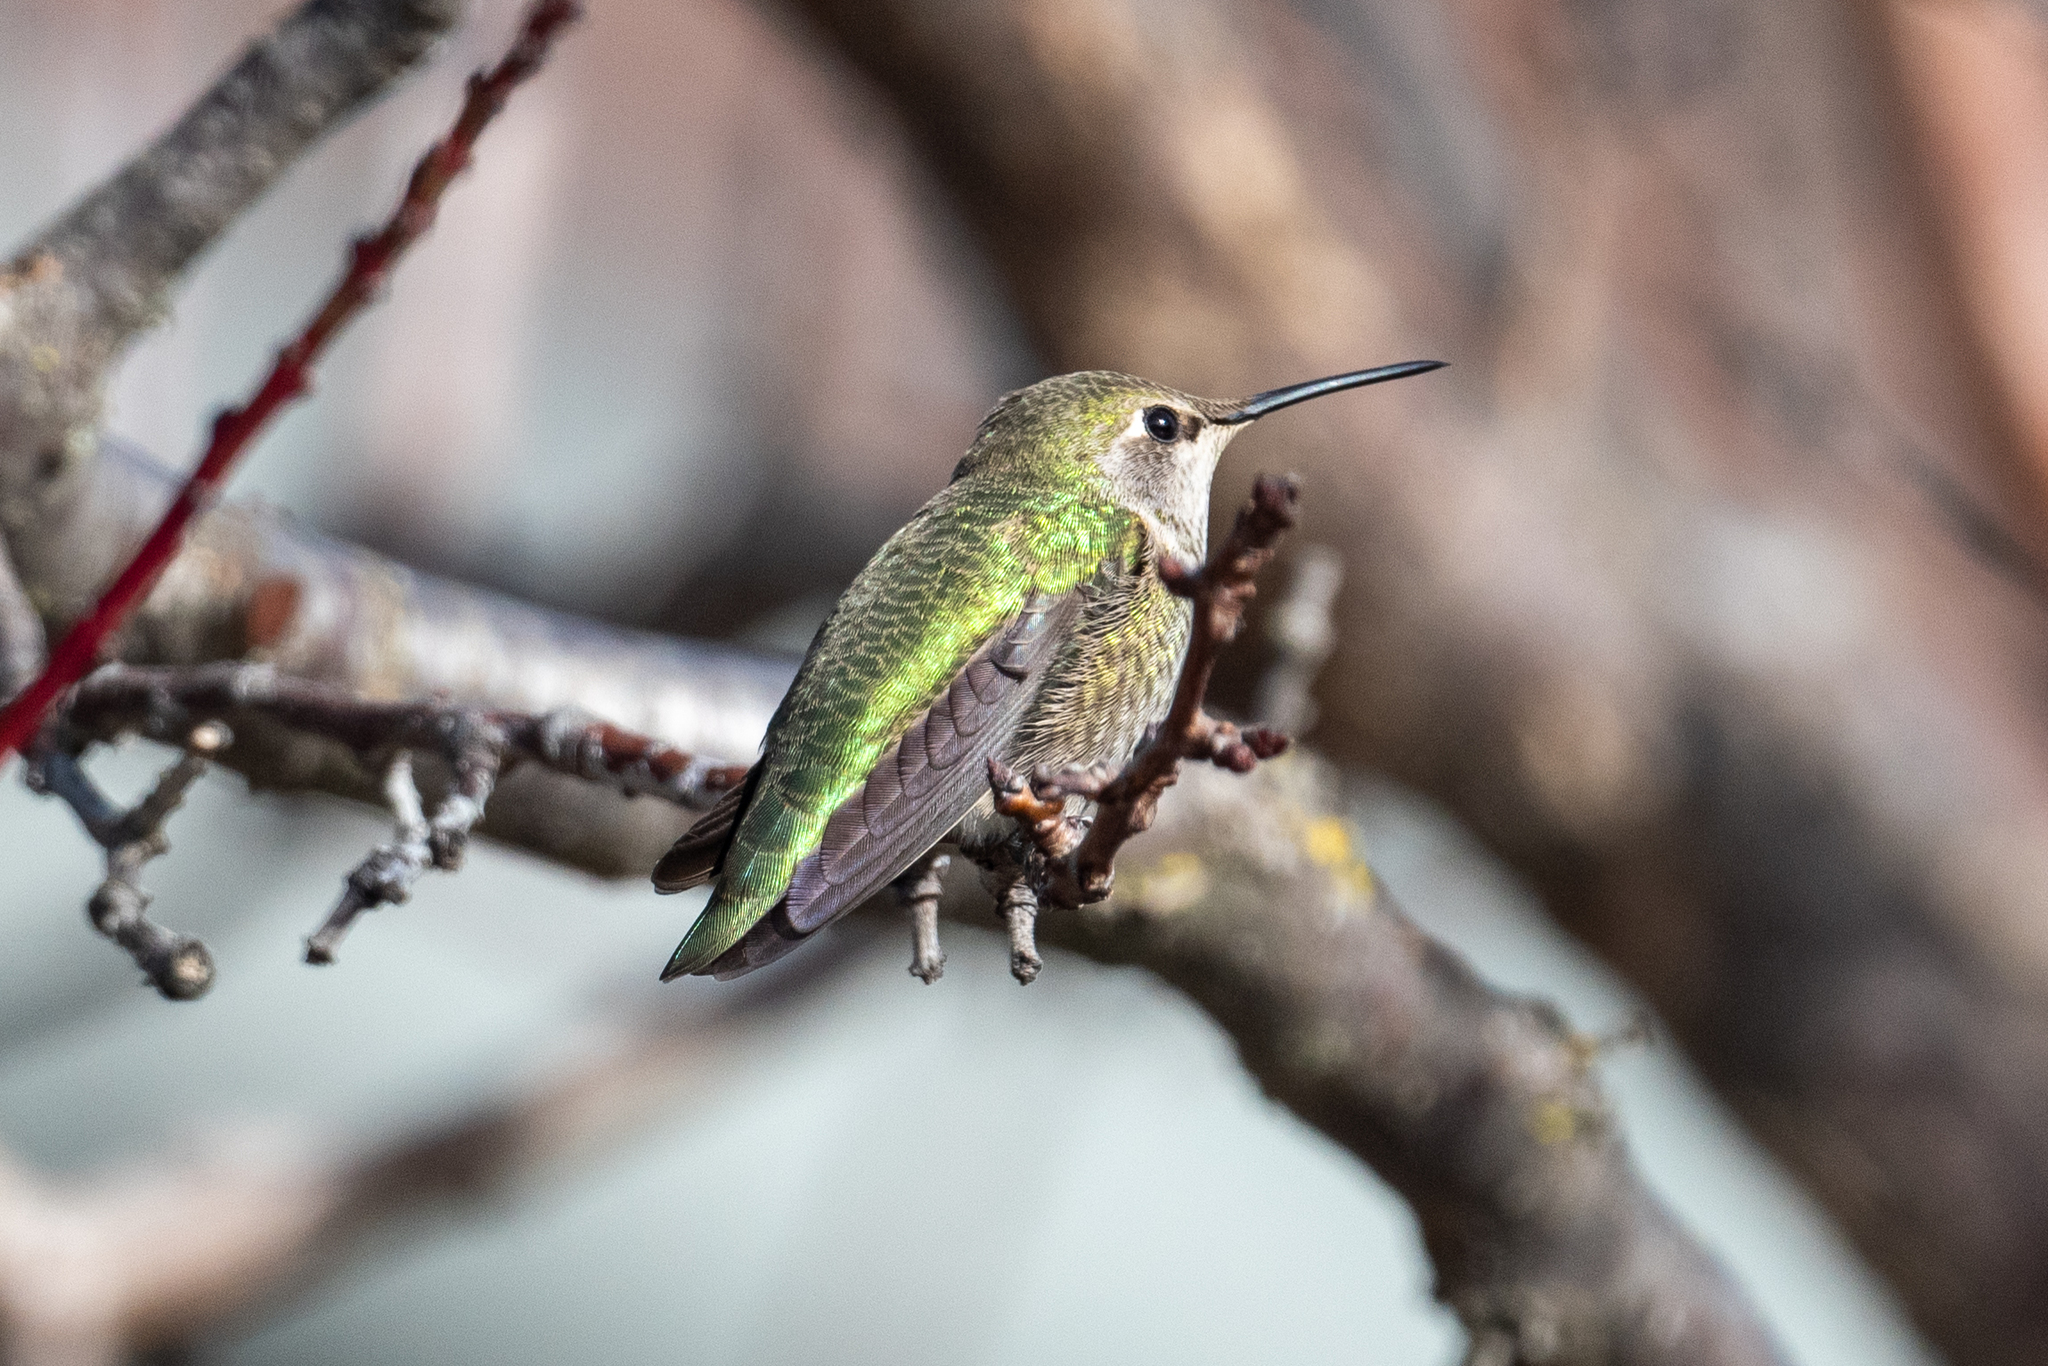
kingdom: Animalia
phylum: Chordata
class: Aves
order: Apodiformes
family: Trochilidae
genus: Calypte
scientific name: Calypte anna
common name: Anna's hummingbird
